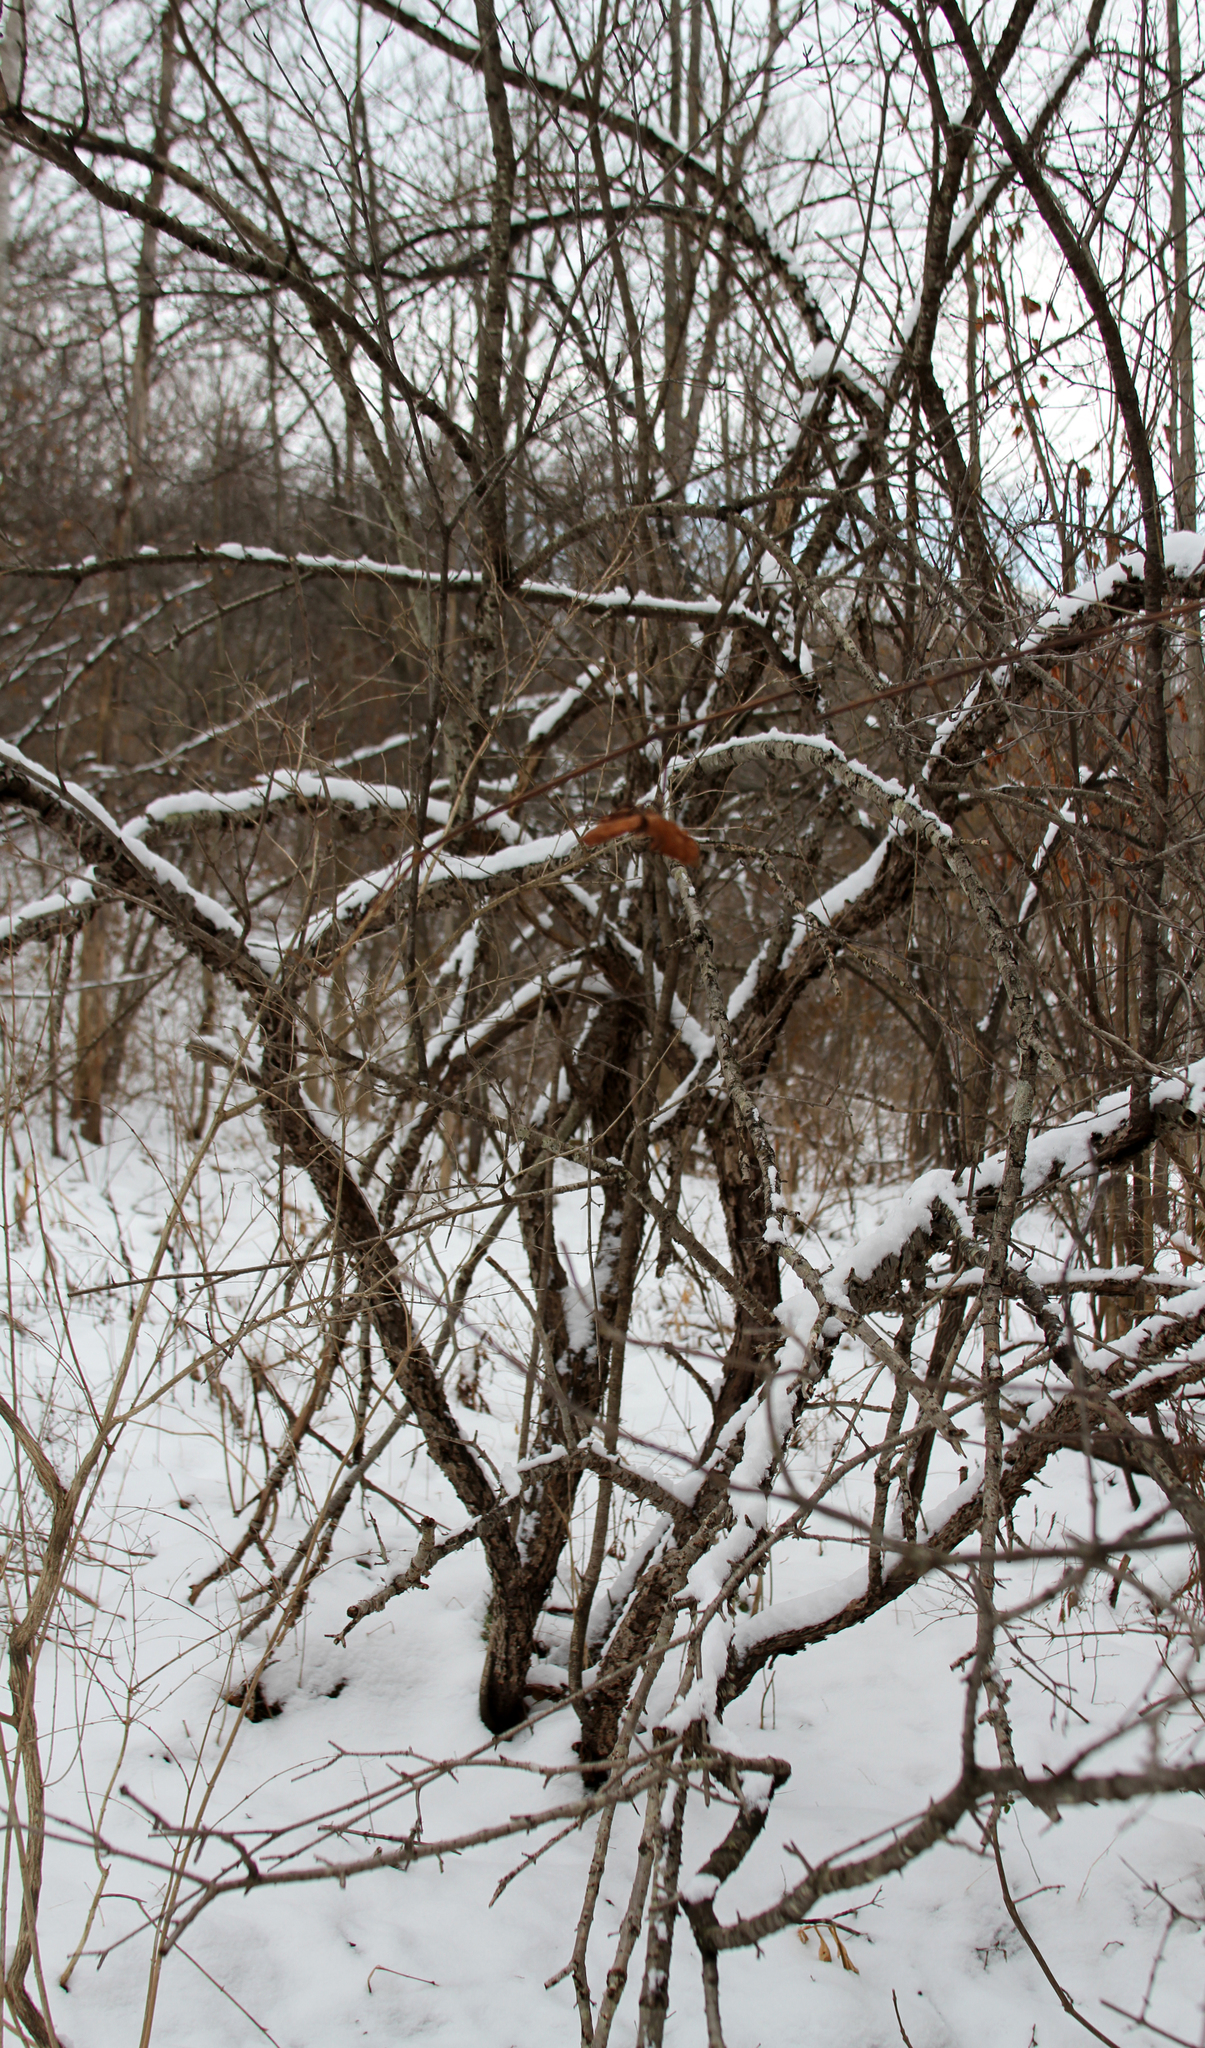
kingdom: Plantae
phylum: Tracheophyta
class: Magnoliopsida
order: Rosales
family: Rhamnaceae
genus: Rhamnus
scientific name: Rhamnus cathartica
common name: Common buckthorn
